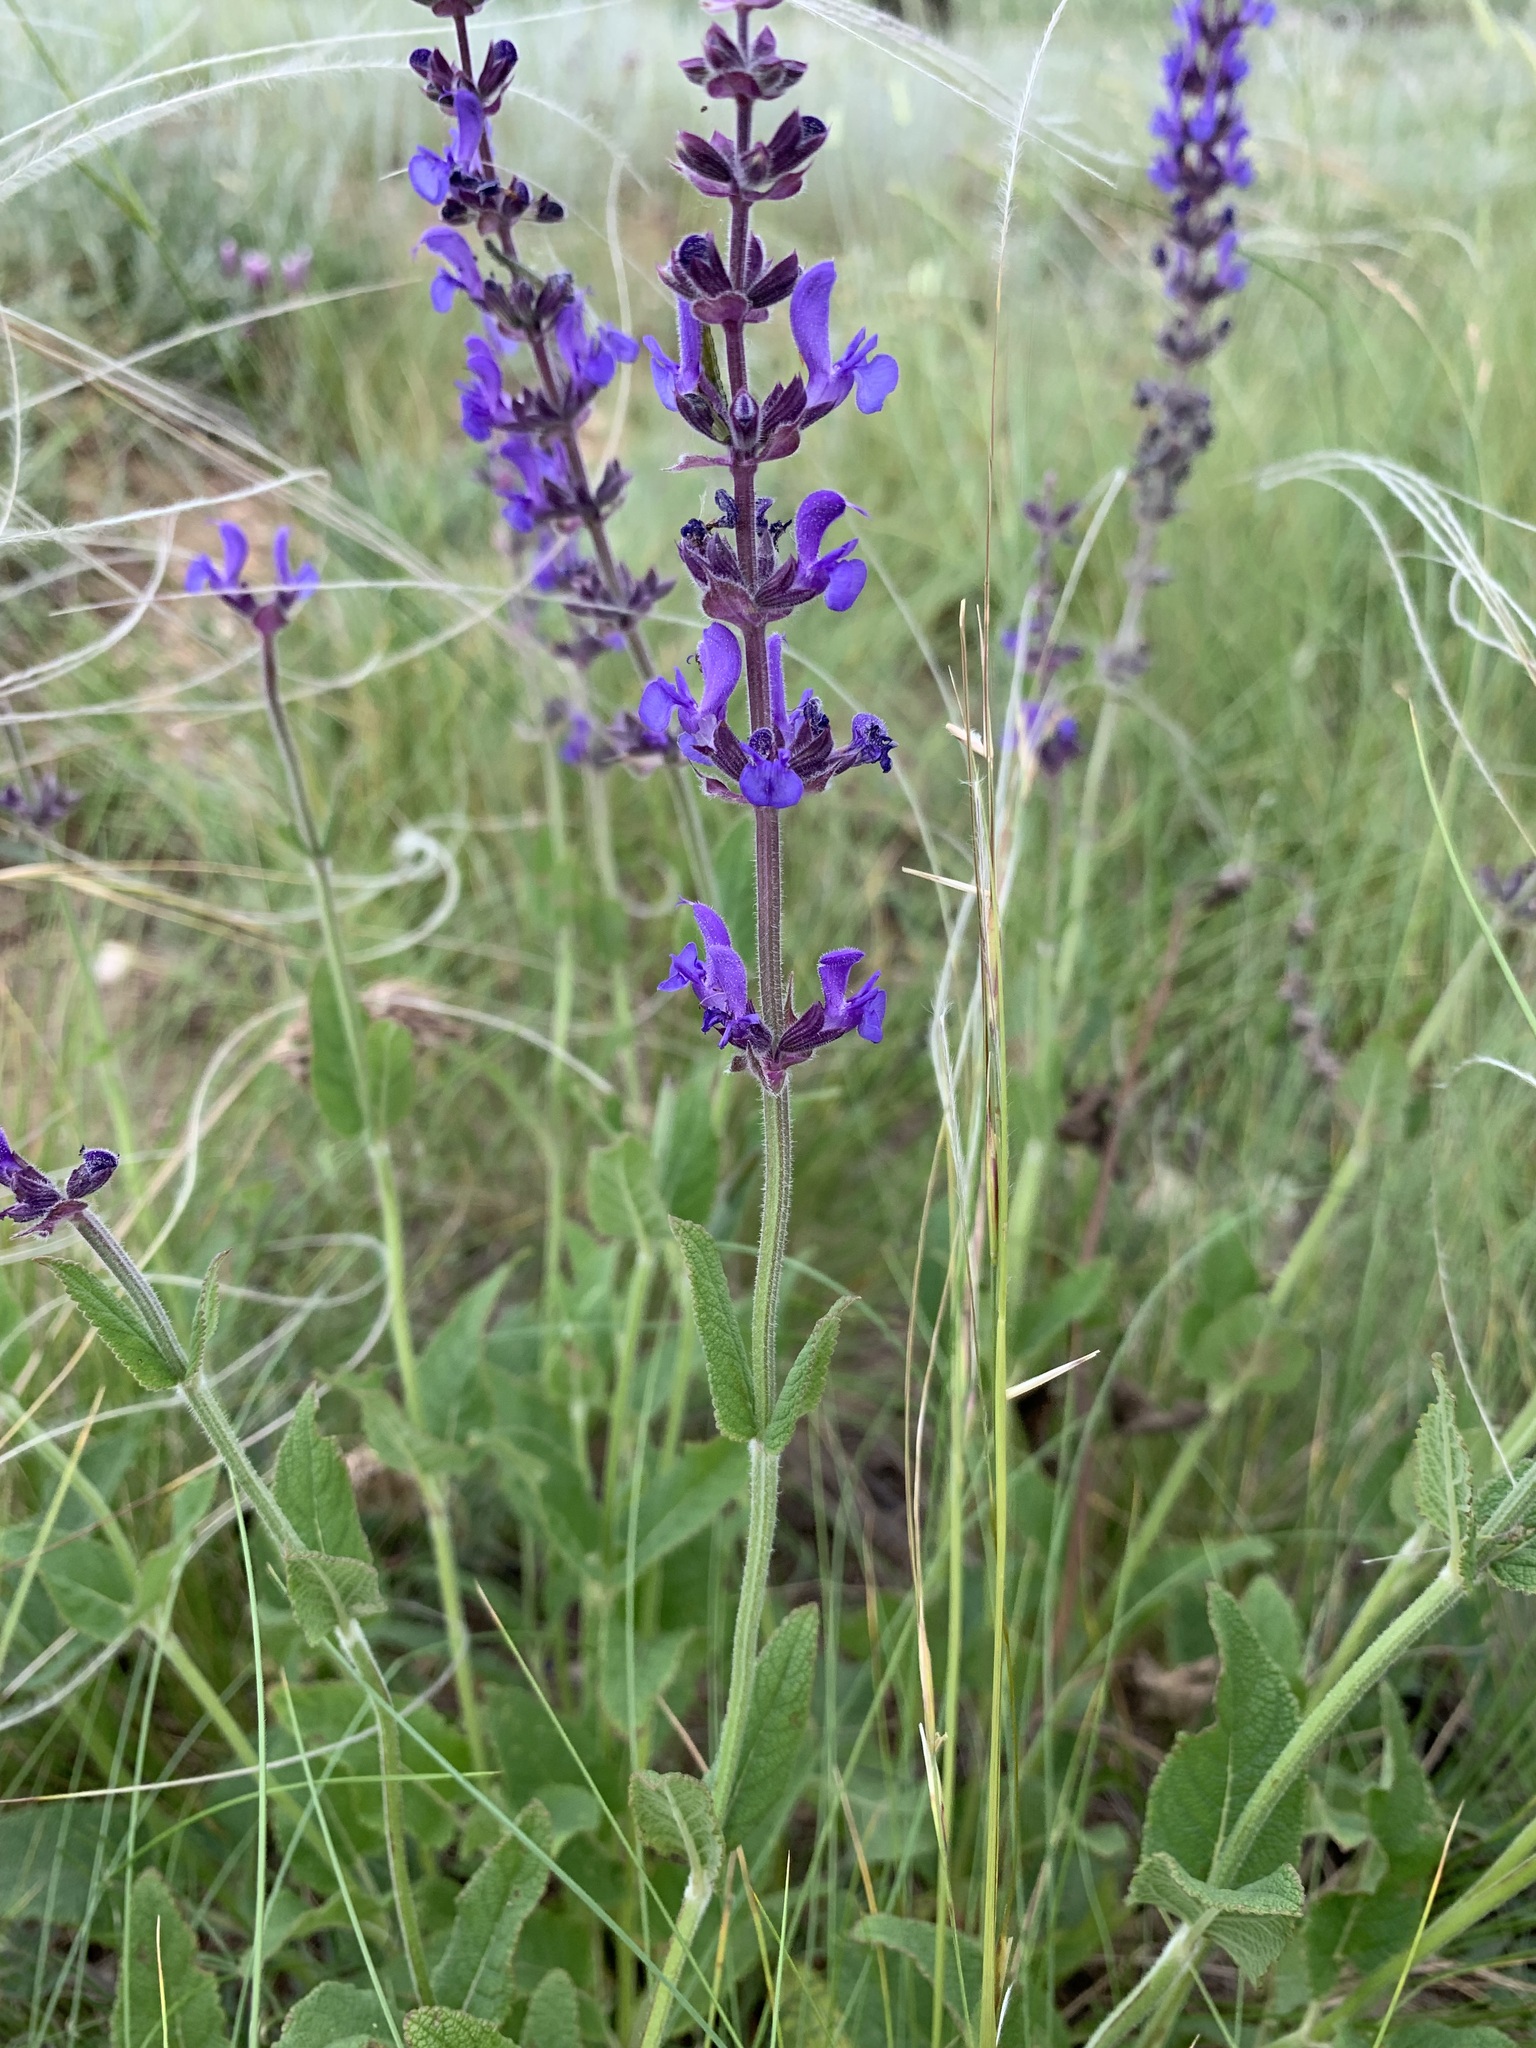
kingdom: Plantae
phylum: Tracheophyta
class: Magnoliopsida
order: Lamiales
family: Lamiaceae
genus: Salvia
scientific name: Salvia dumetorum
